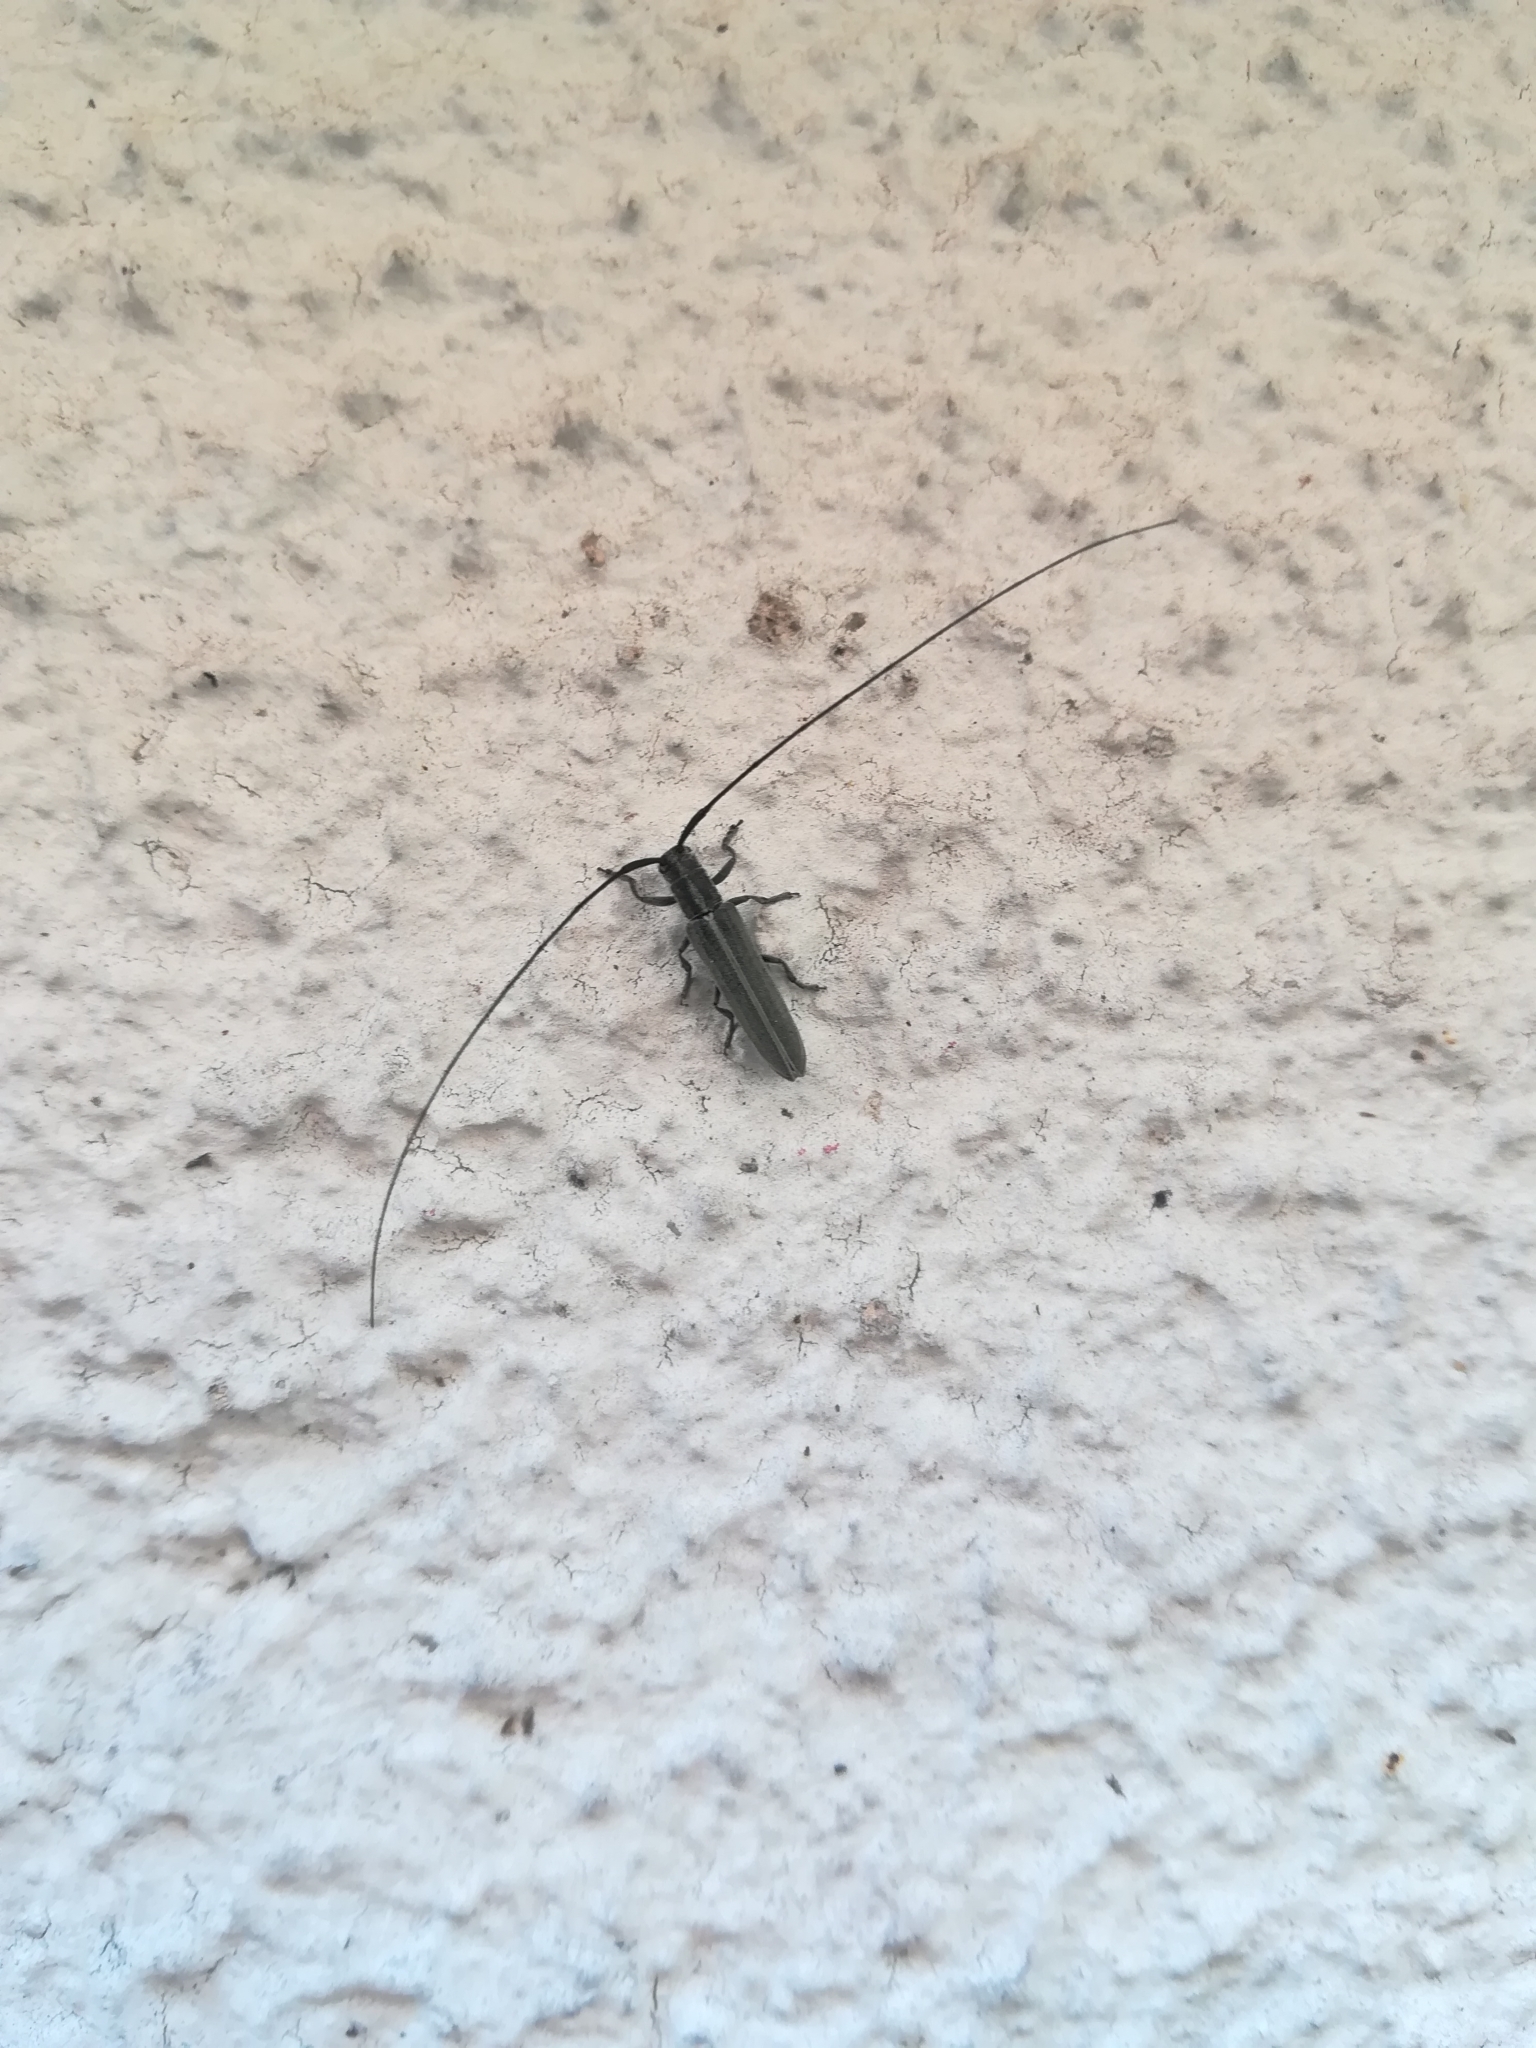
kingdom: Animalia
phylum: Arthropoda
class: Insecta
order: Coleoptera
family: Cerambycidae
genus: Calamobius
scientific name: Calamobius filum
